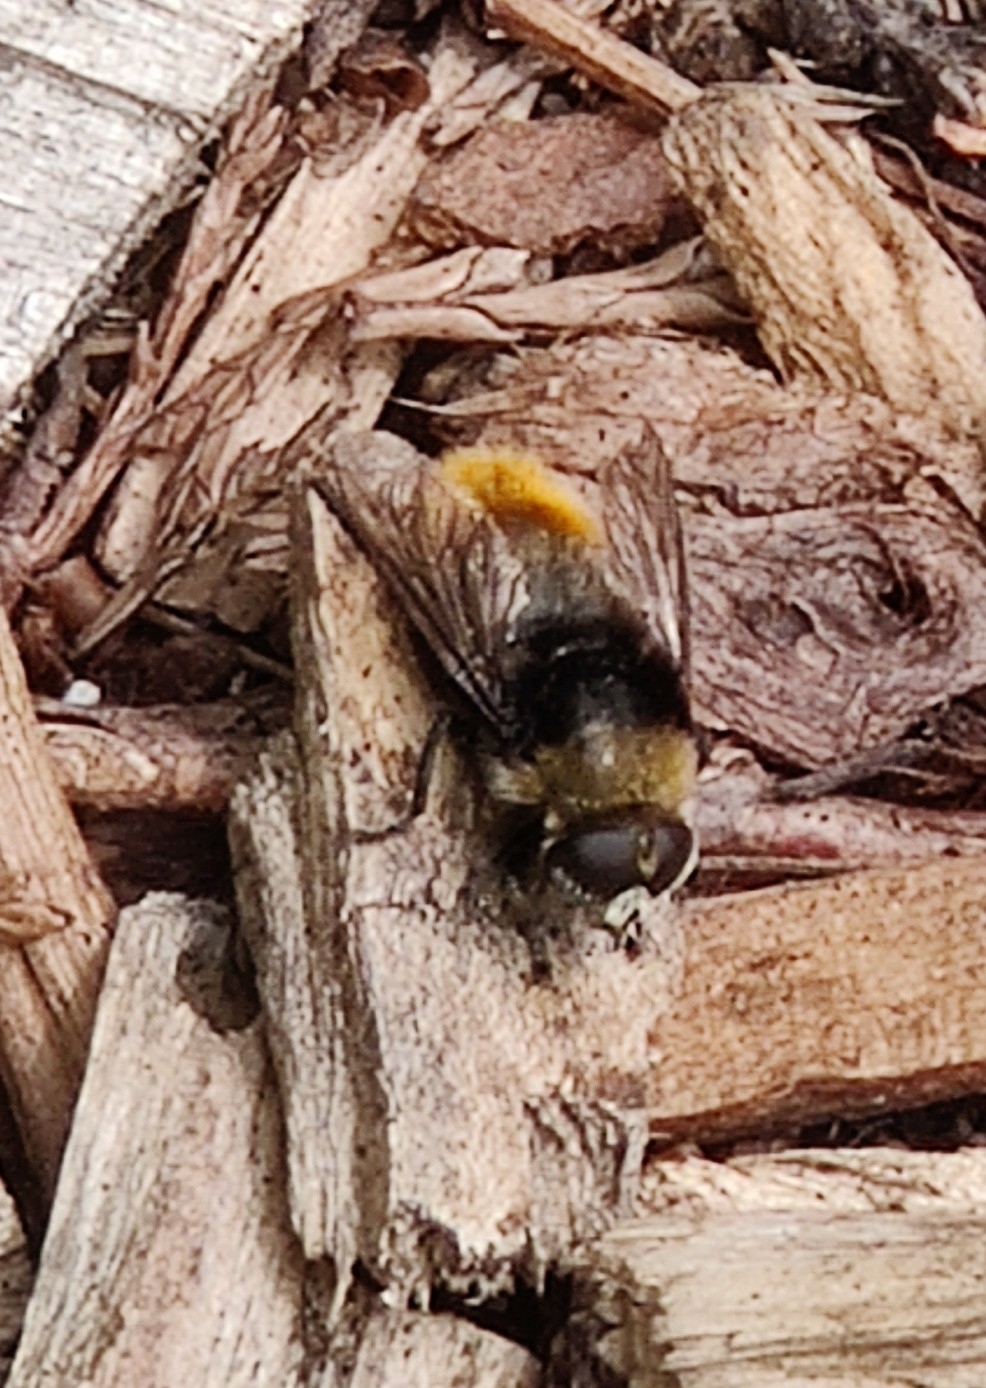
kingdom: Animalia
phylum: Arthropoda
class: Insecta
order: Diptera
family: Syrphidae
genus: Merodon
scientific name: Merodon equestris
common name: Greater bulb-fly
